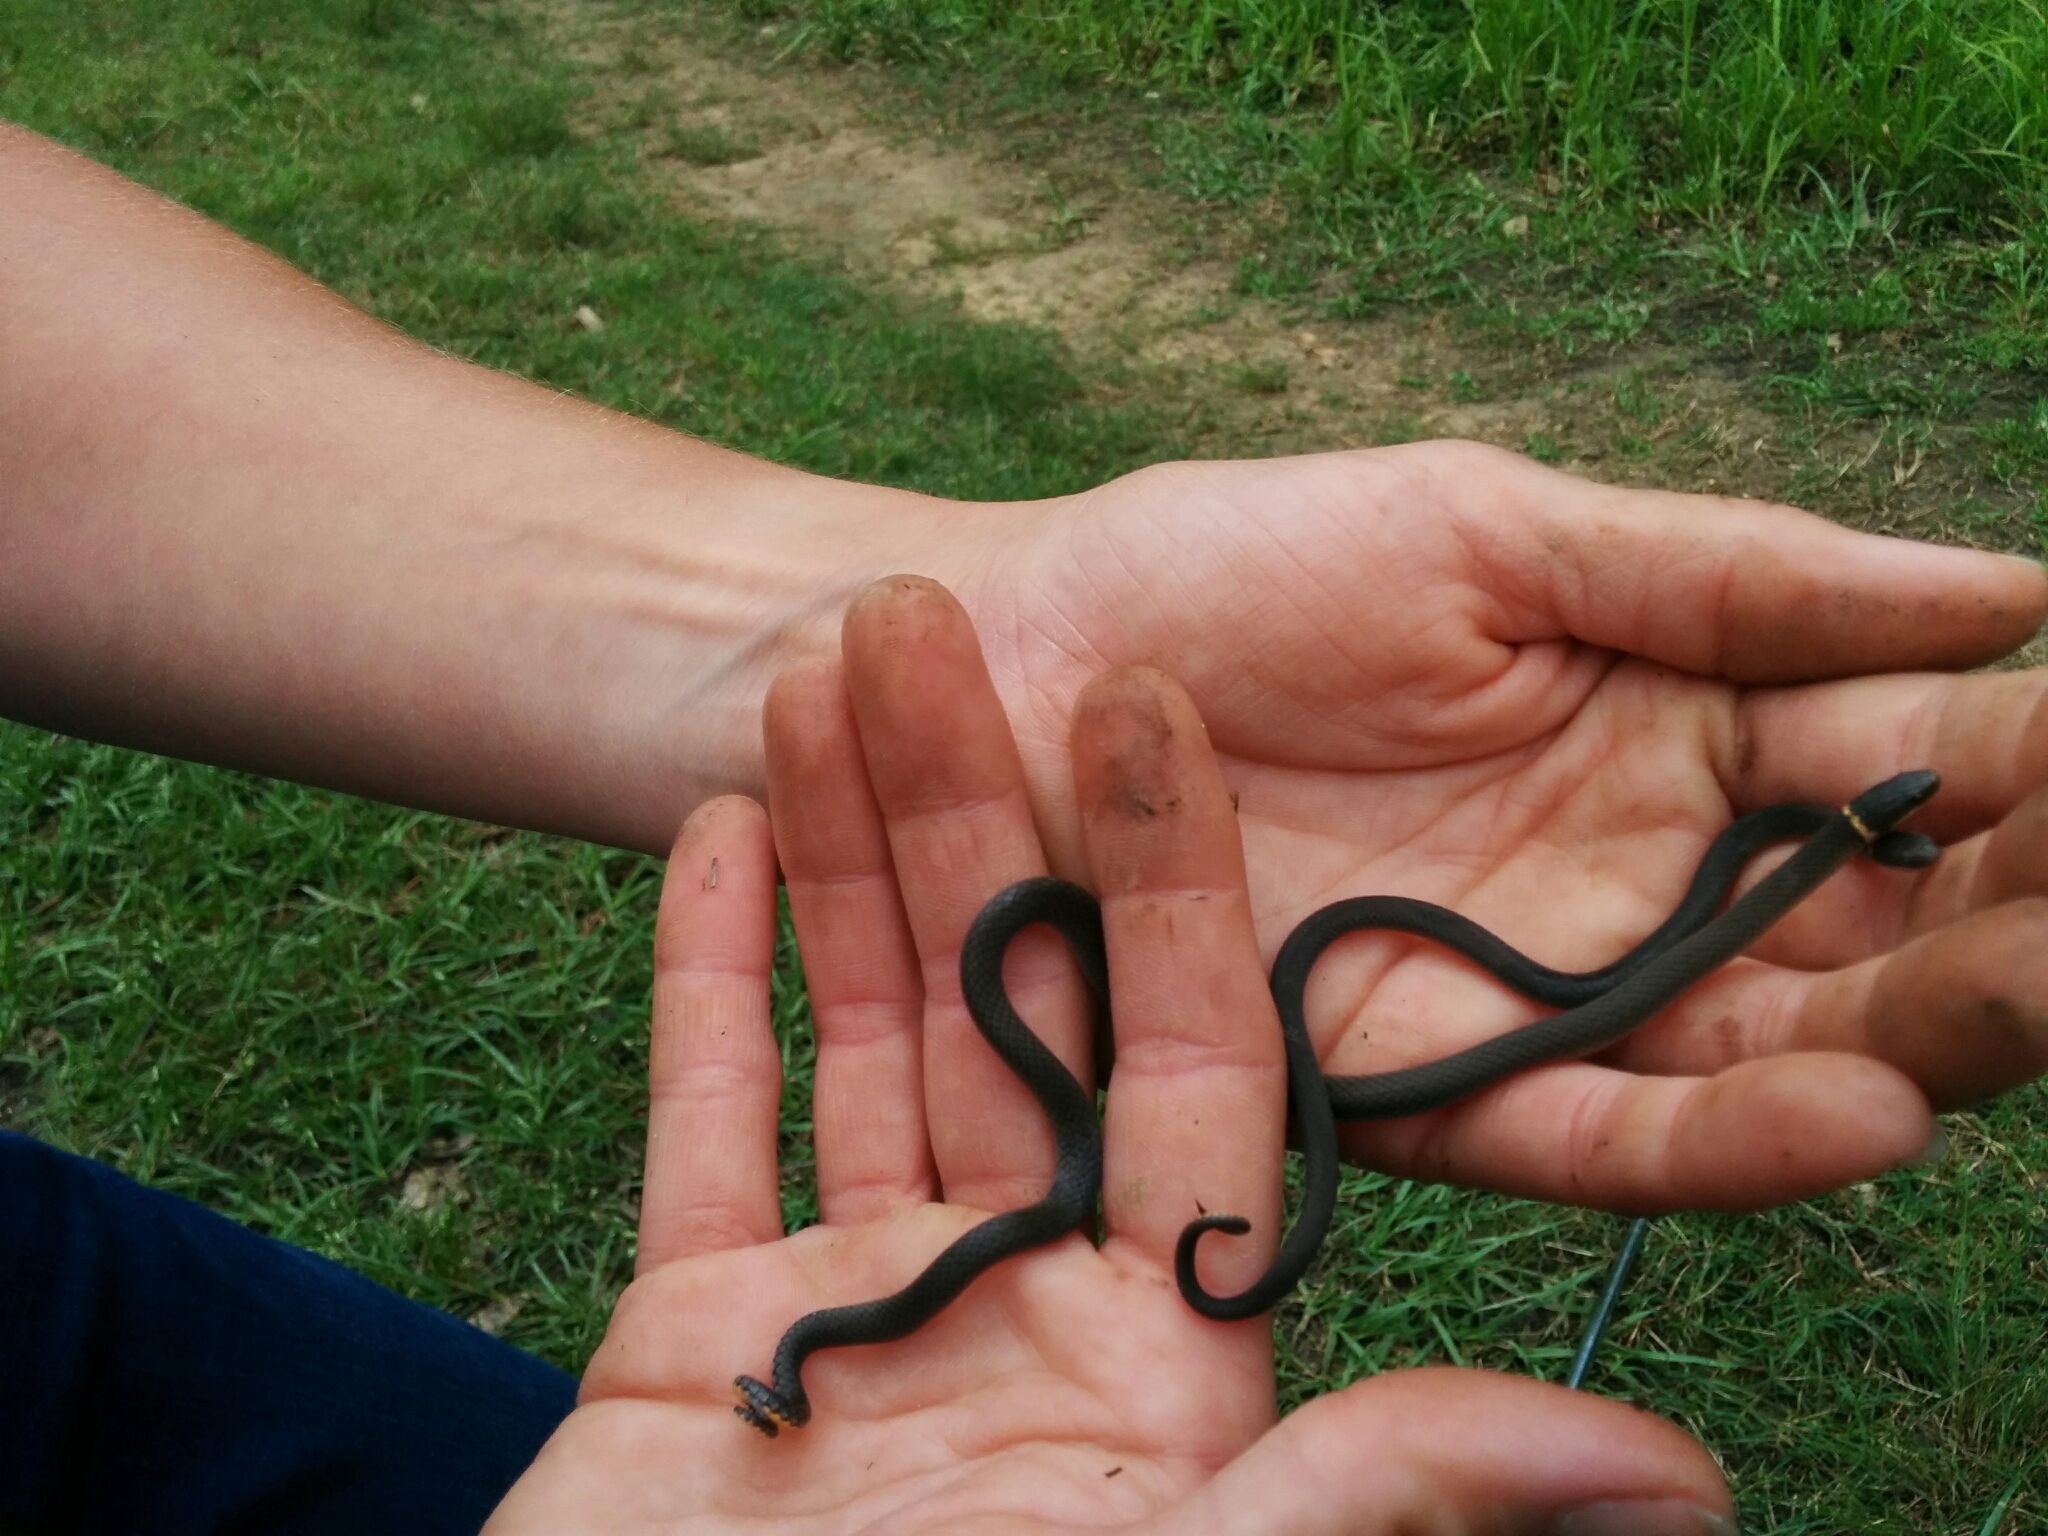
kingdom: Animalia
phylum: Chordata
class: Squamata
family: Colubridae
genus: Diadophis
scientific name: Diadophis punctatus
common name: Ringneck snake
